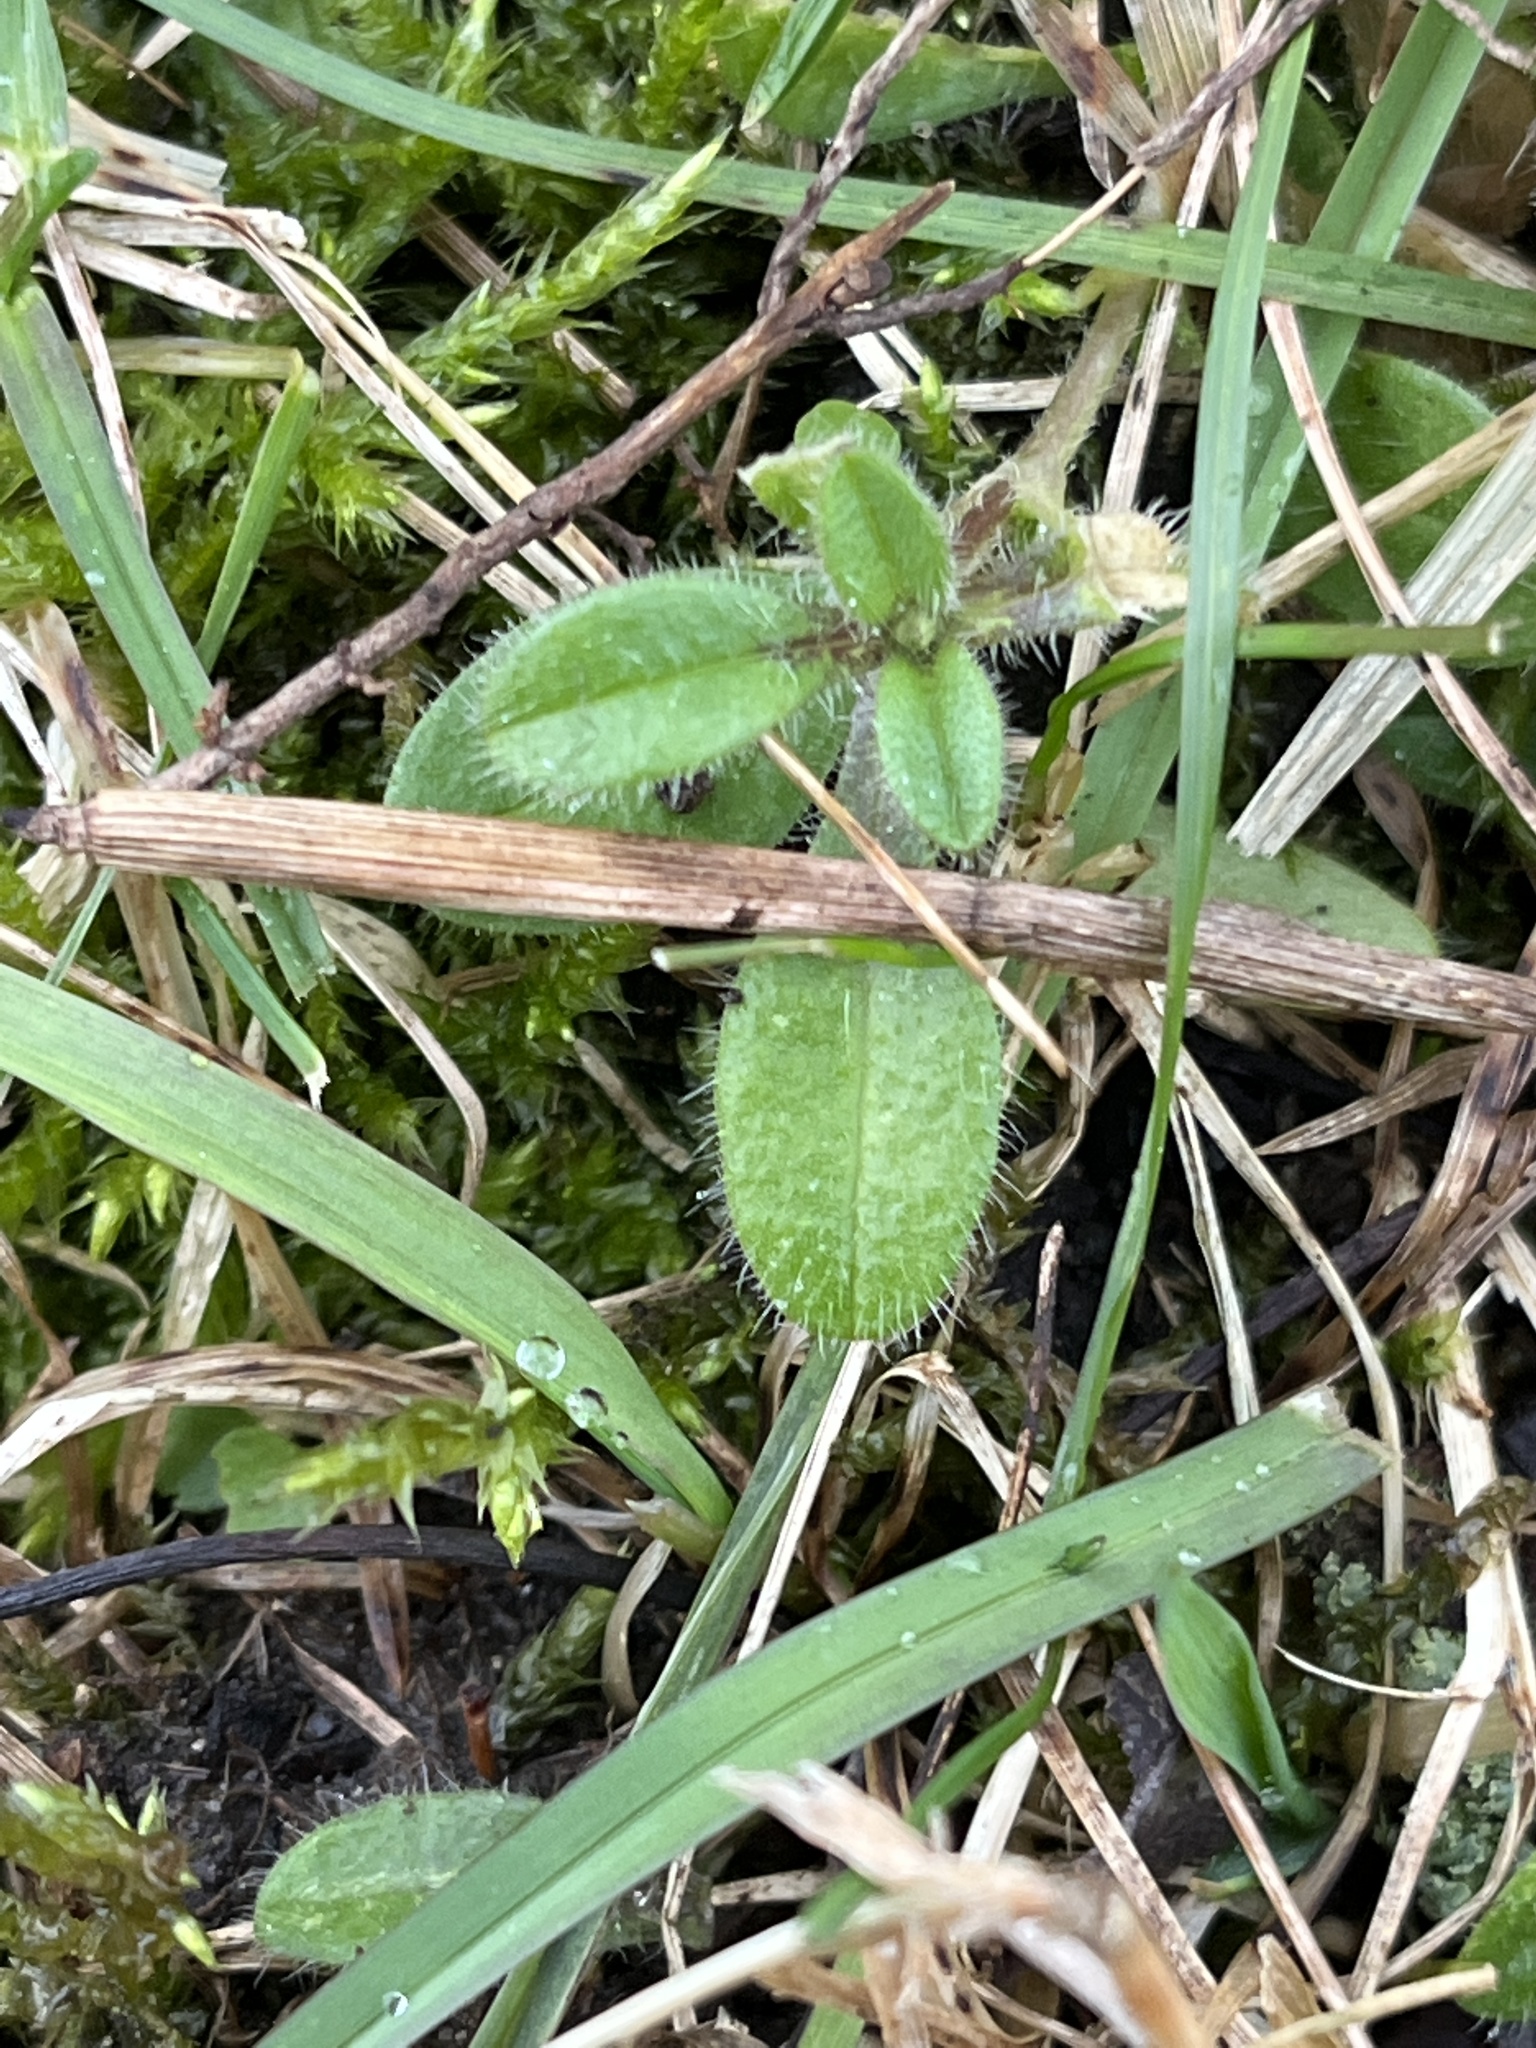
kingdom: Plantae
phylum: Tracheophyta
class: Magnoliopsida
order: Caryophyllales
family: Caryophyllaceae
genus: Cerastium
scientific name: Cerastium fontanum
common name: Common mouse-ear
